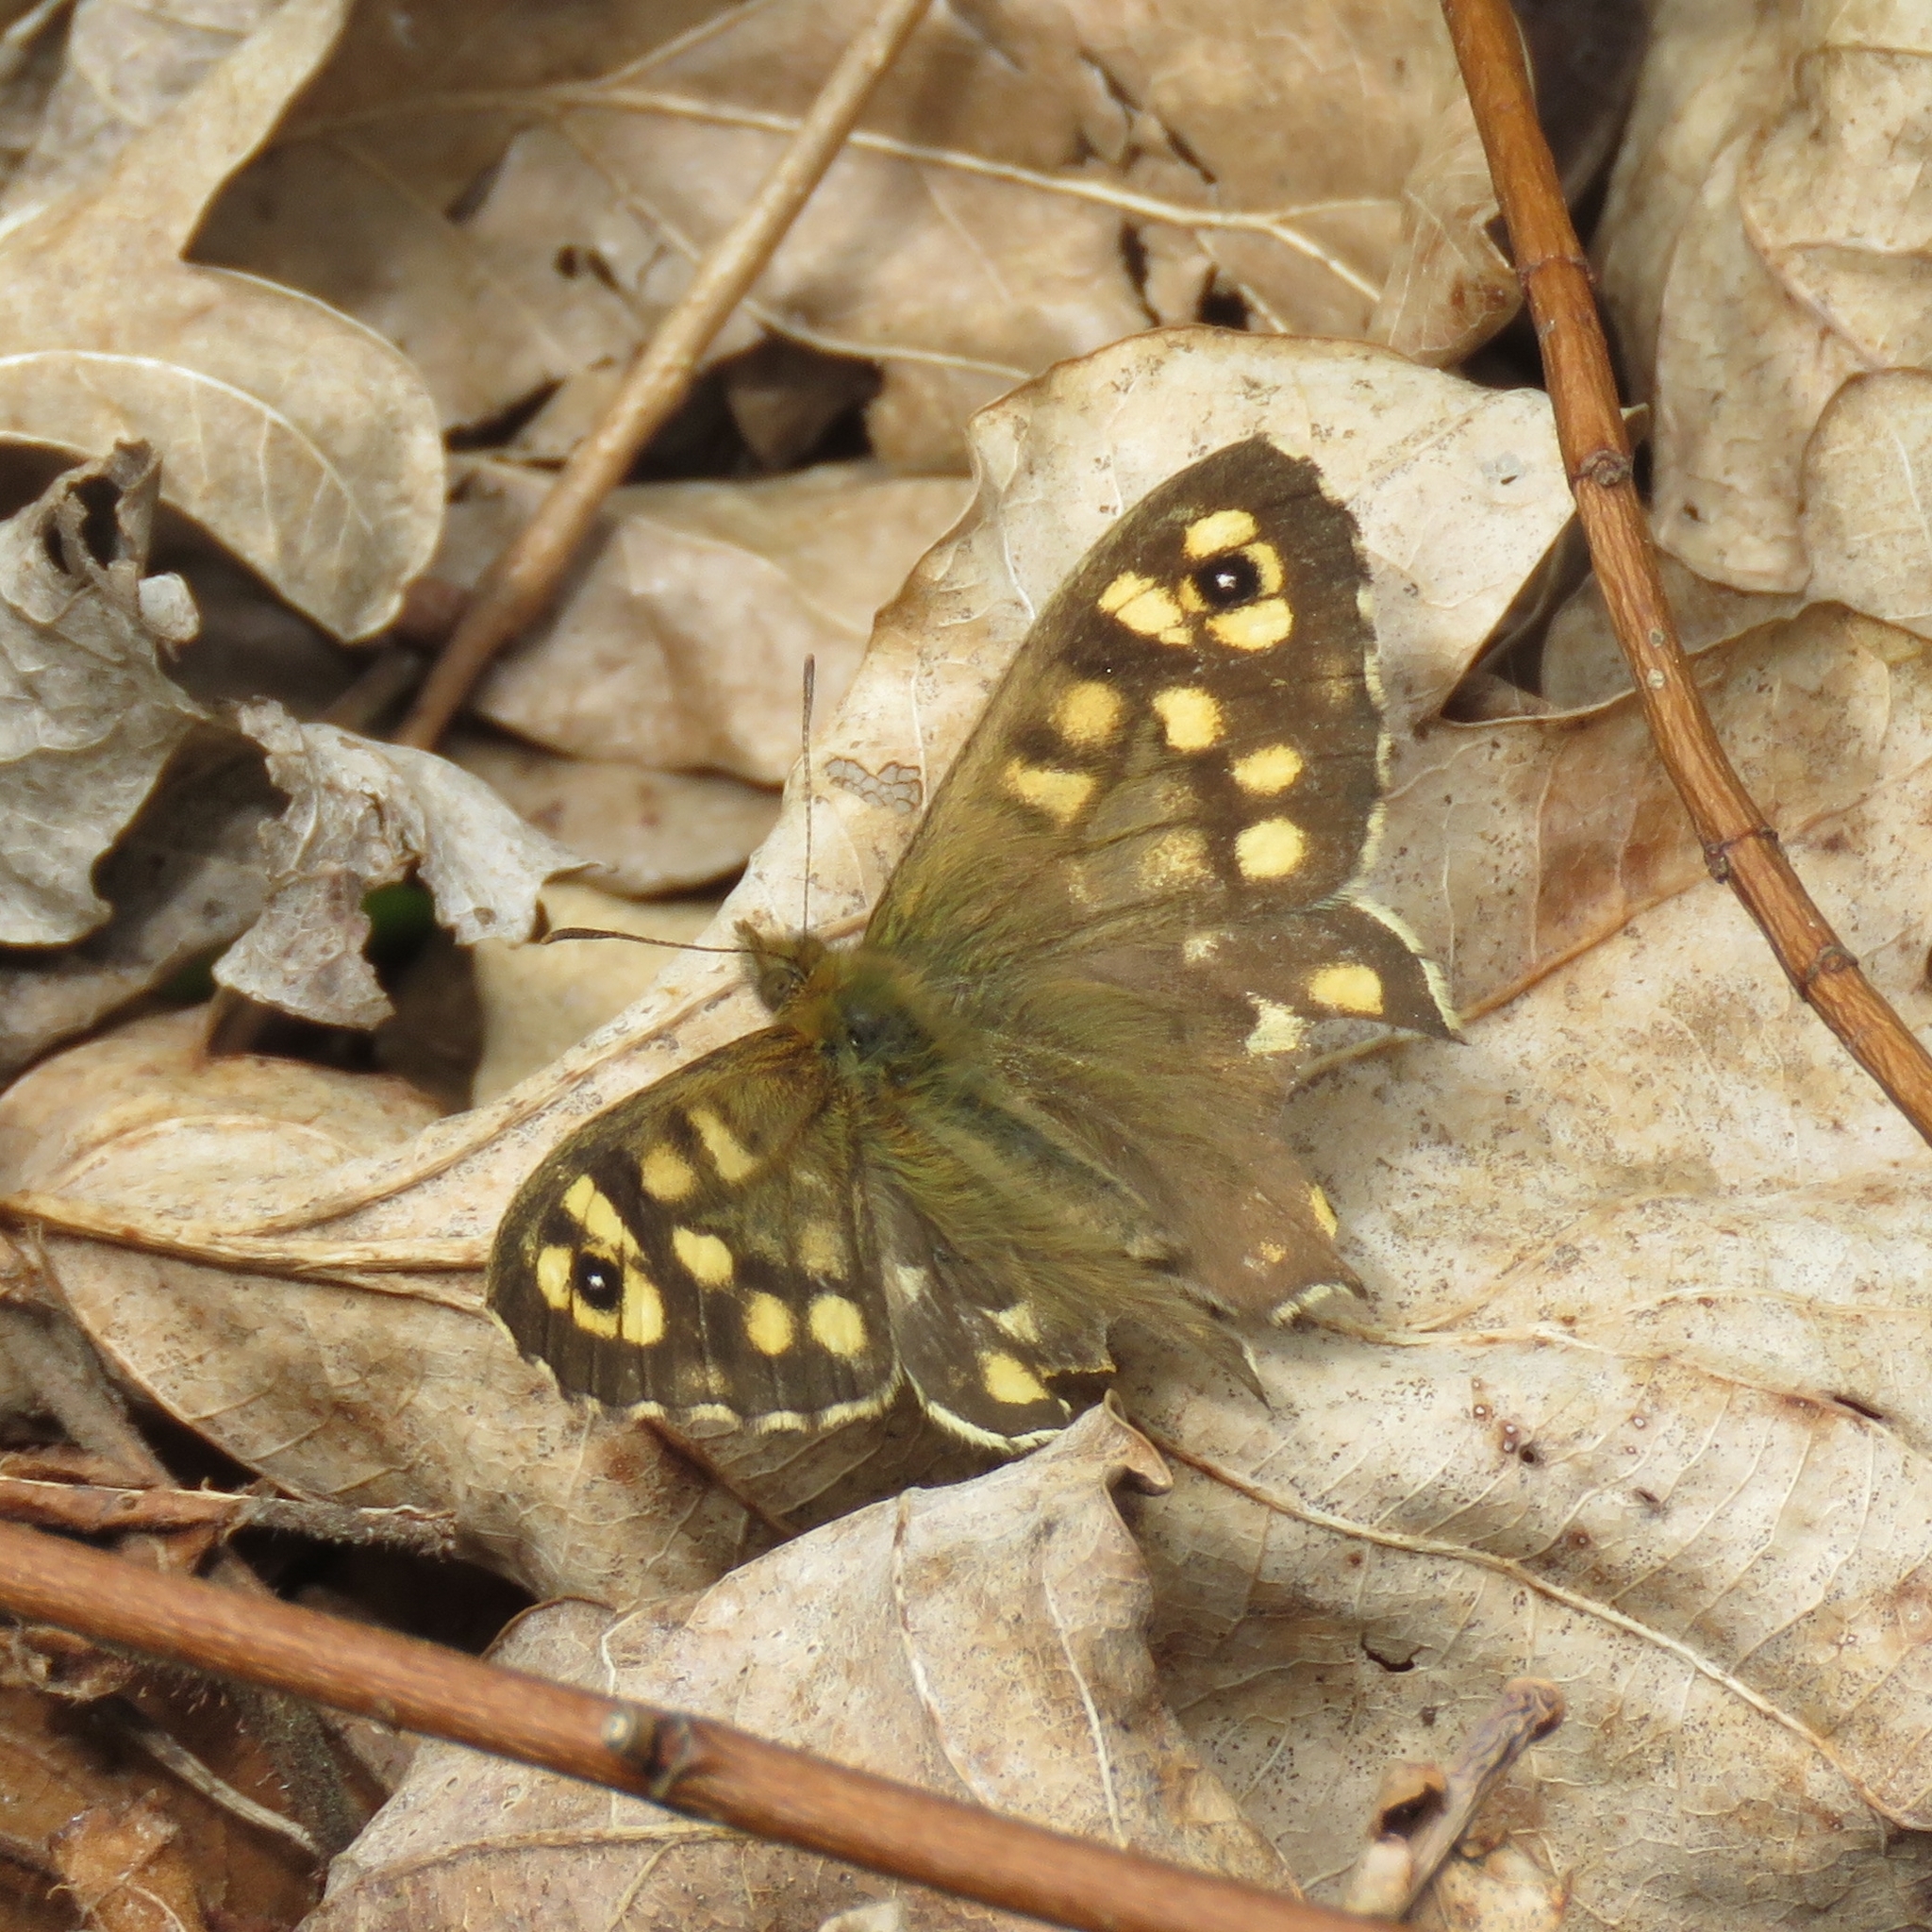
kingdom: Animalia
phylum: Arthropoda
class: Insecta
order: Lepidoptera
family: Nymphalidae
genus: Pararge
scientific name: Pararge aegeria
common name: Speckled wood
